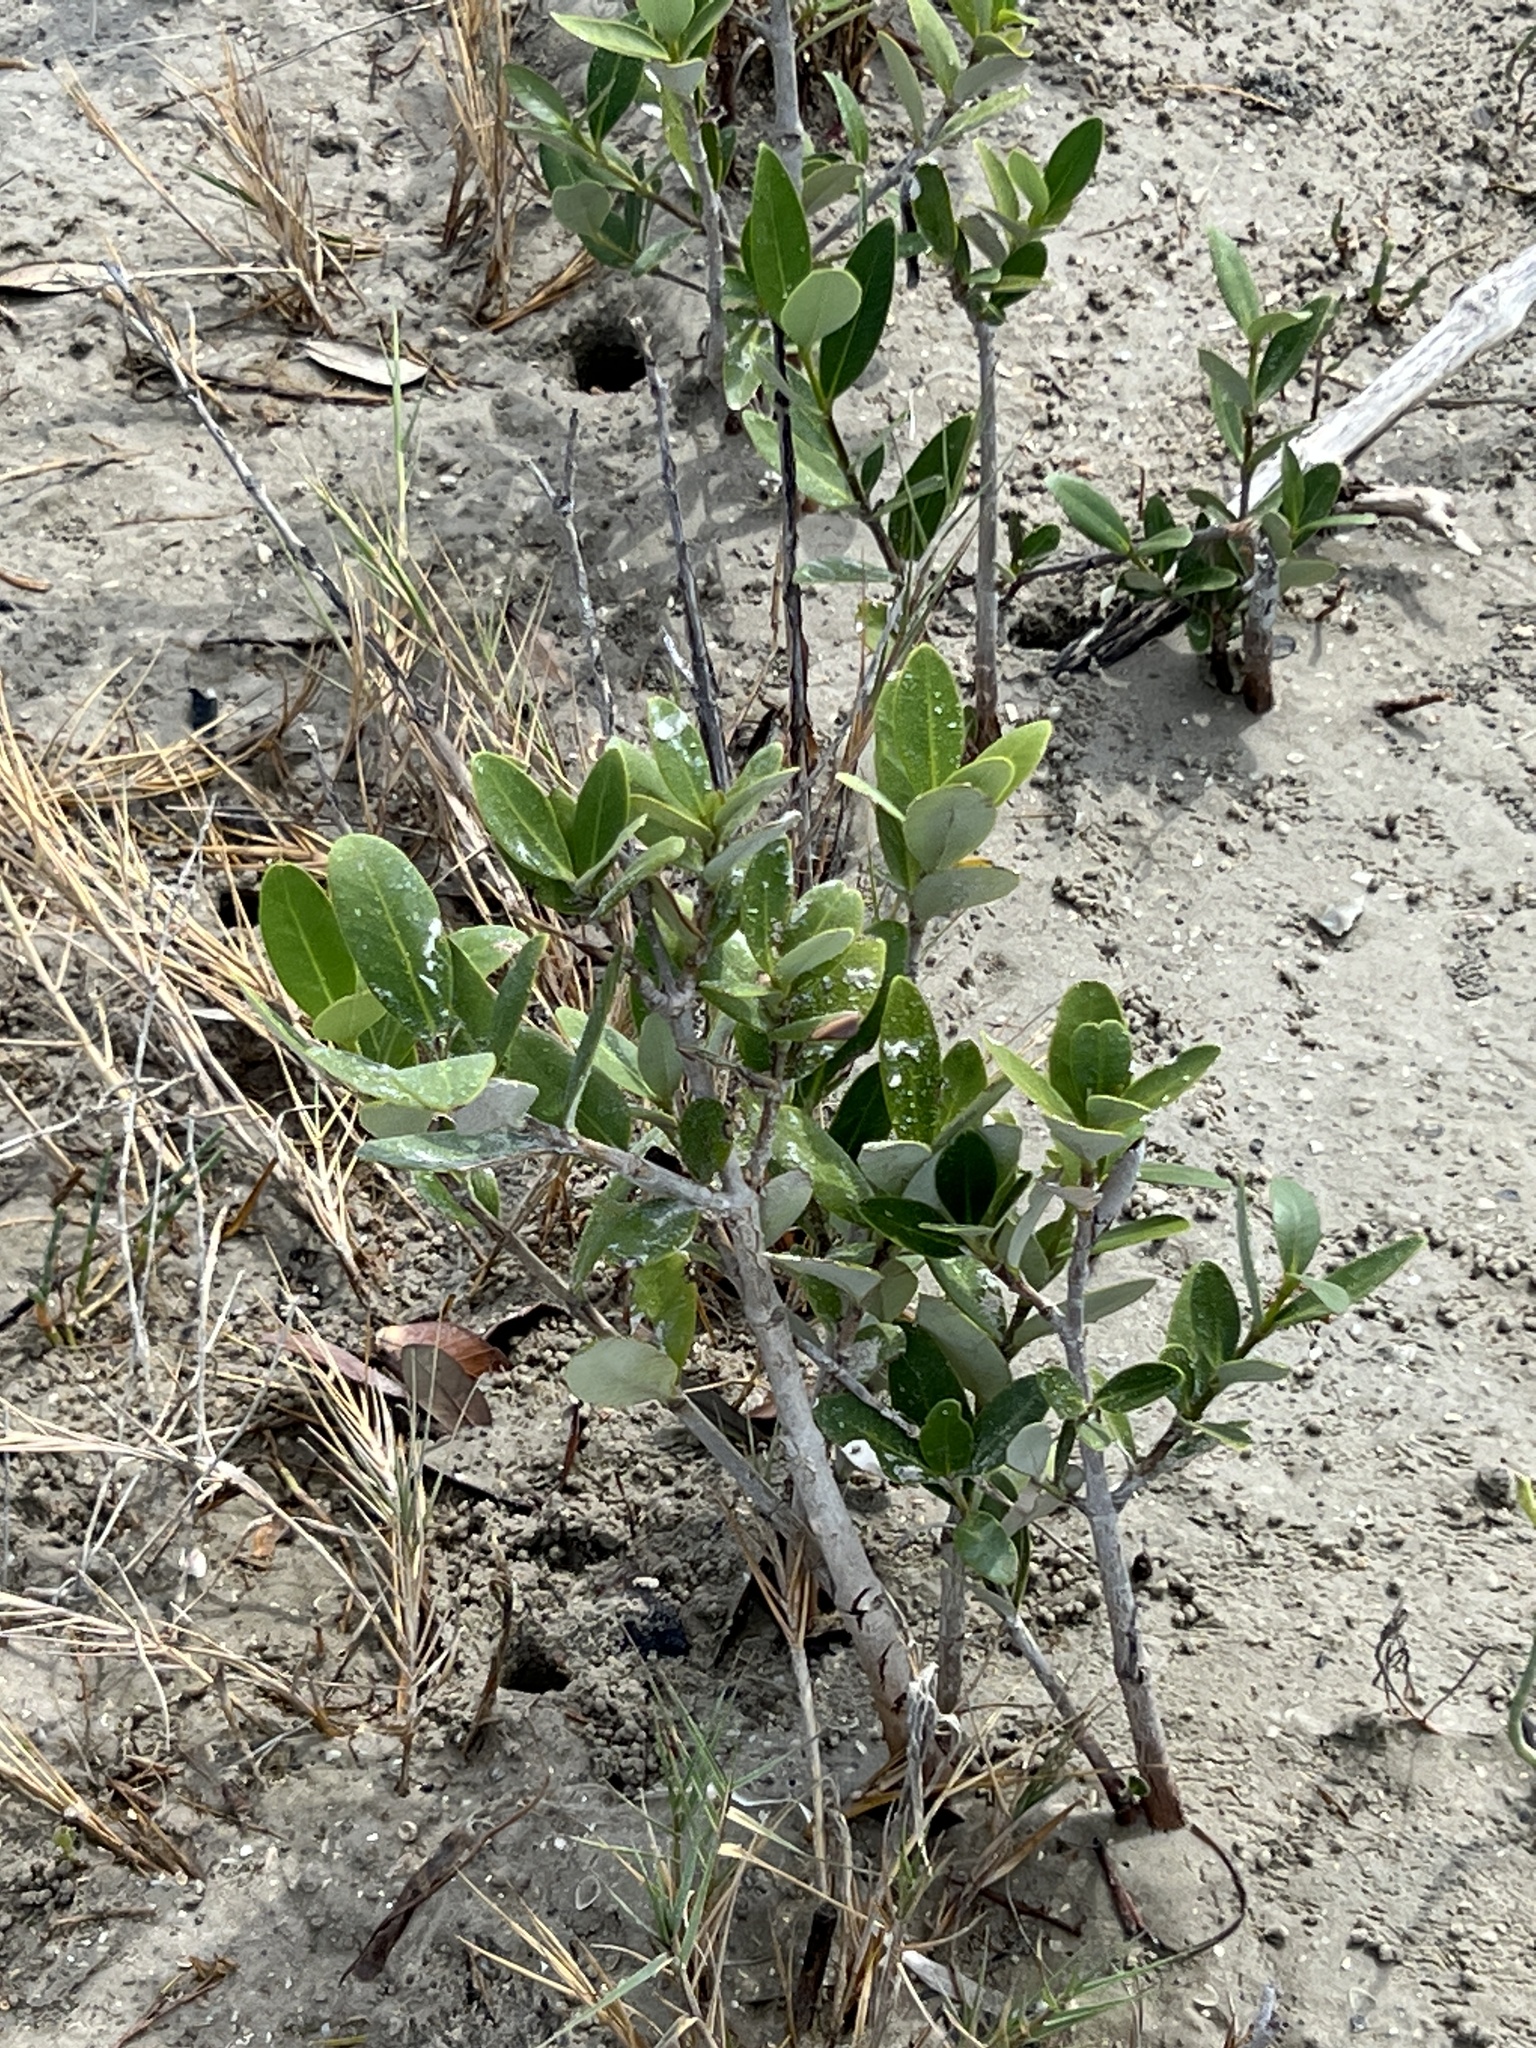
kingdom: Plantae
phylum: Tracheophyta
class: Magnoliopsida
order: Lamiales
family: Acanthaceae
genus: Avicennia
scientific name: Avicennia germinans
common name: Black mangrove
